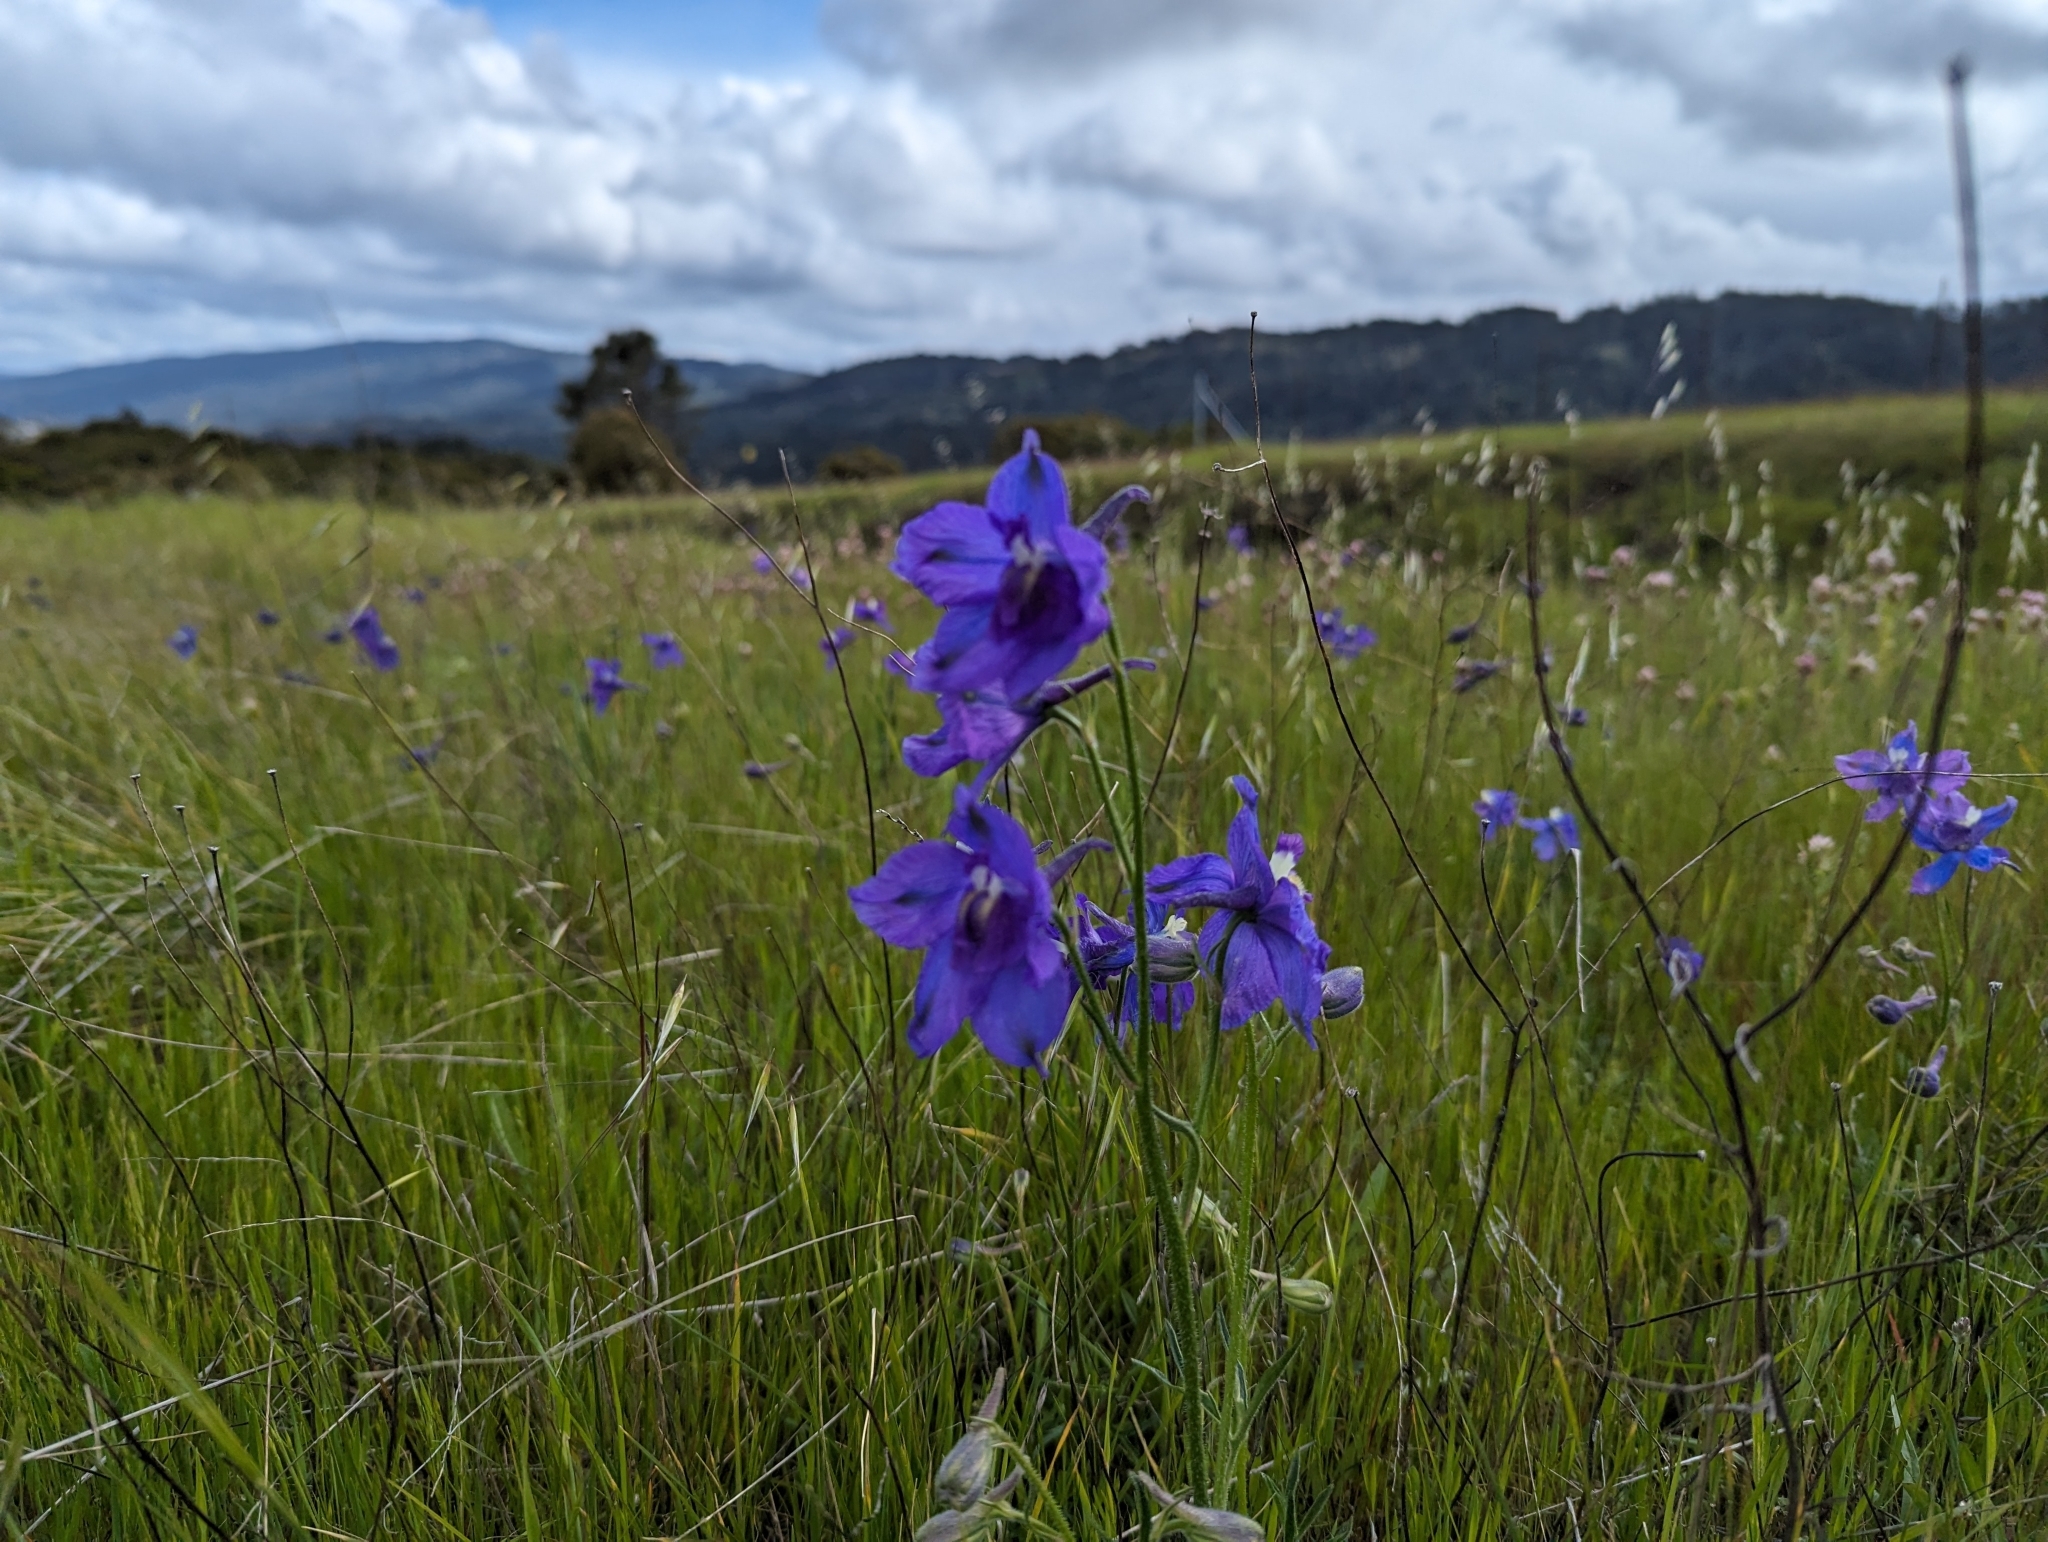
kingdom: Plantae
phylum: Tracheophyta
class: Magnoliopsida
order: Ranunculales
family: Ranunculaceae
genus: Delphinium
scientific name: Delphinium variegatum
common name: Royal larkspur
